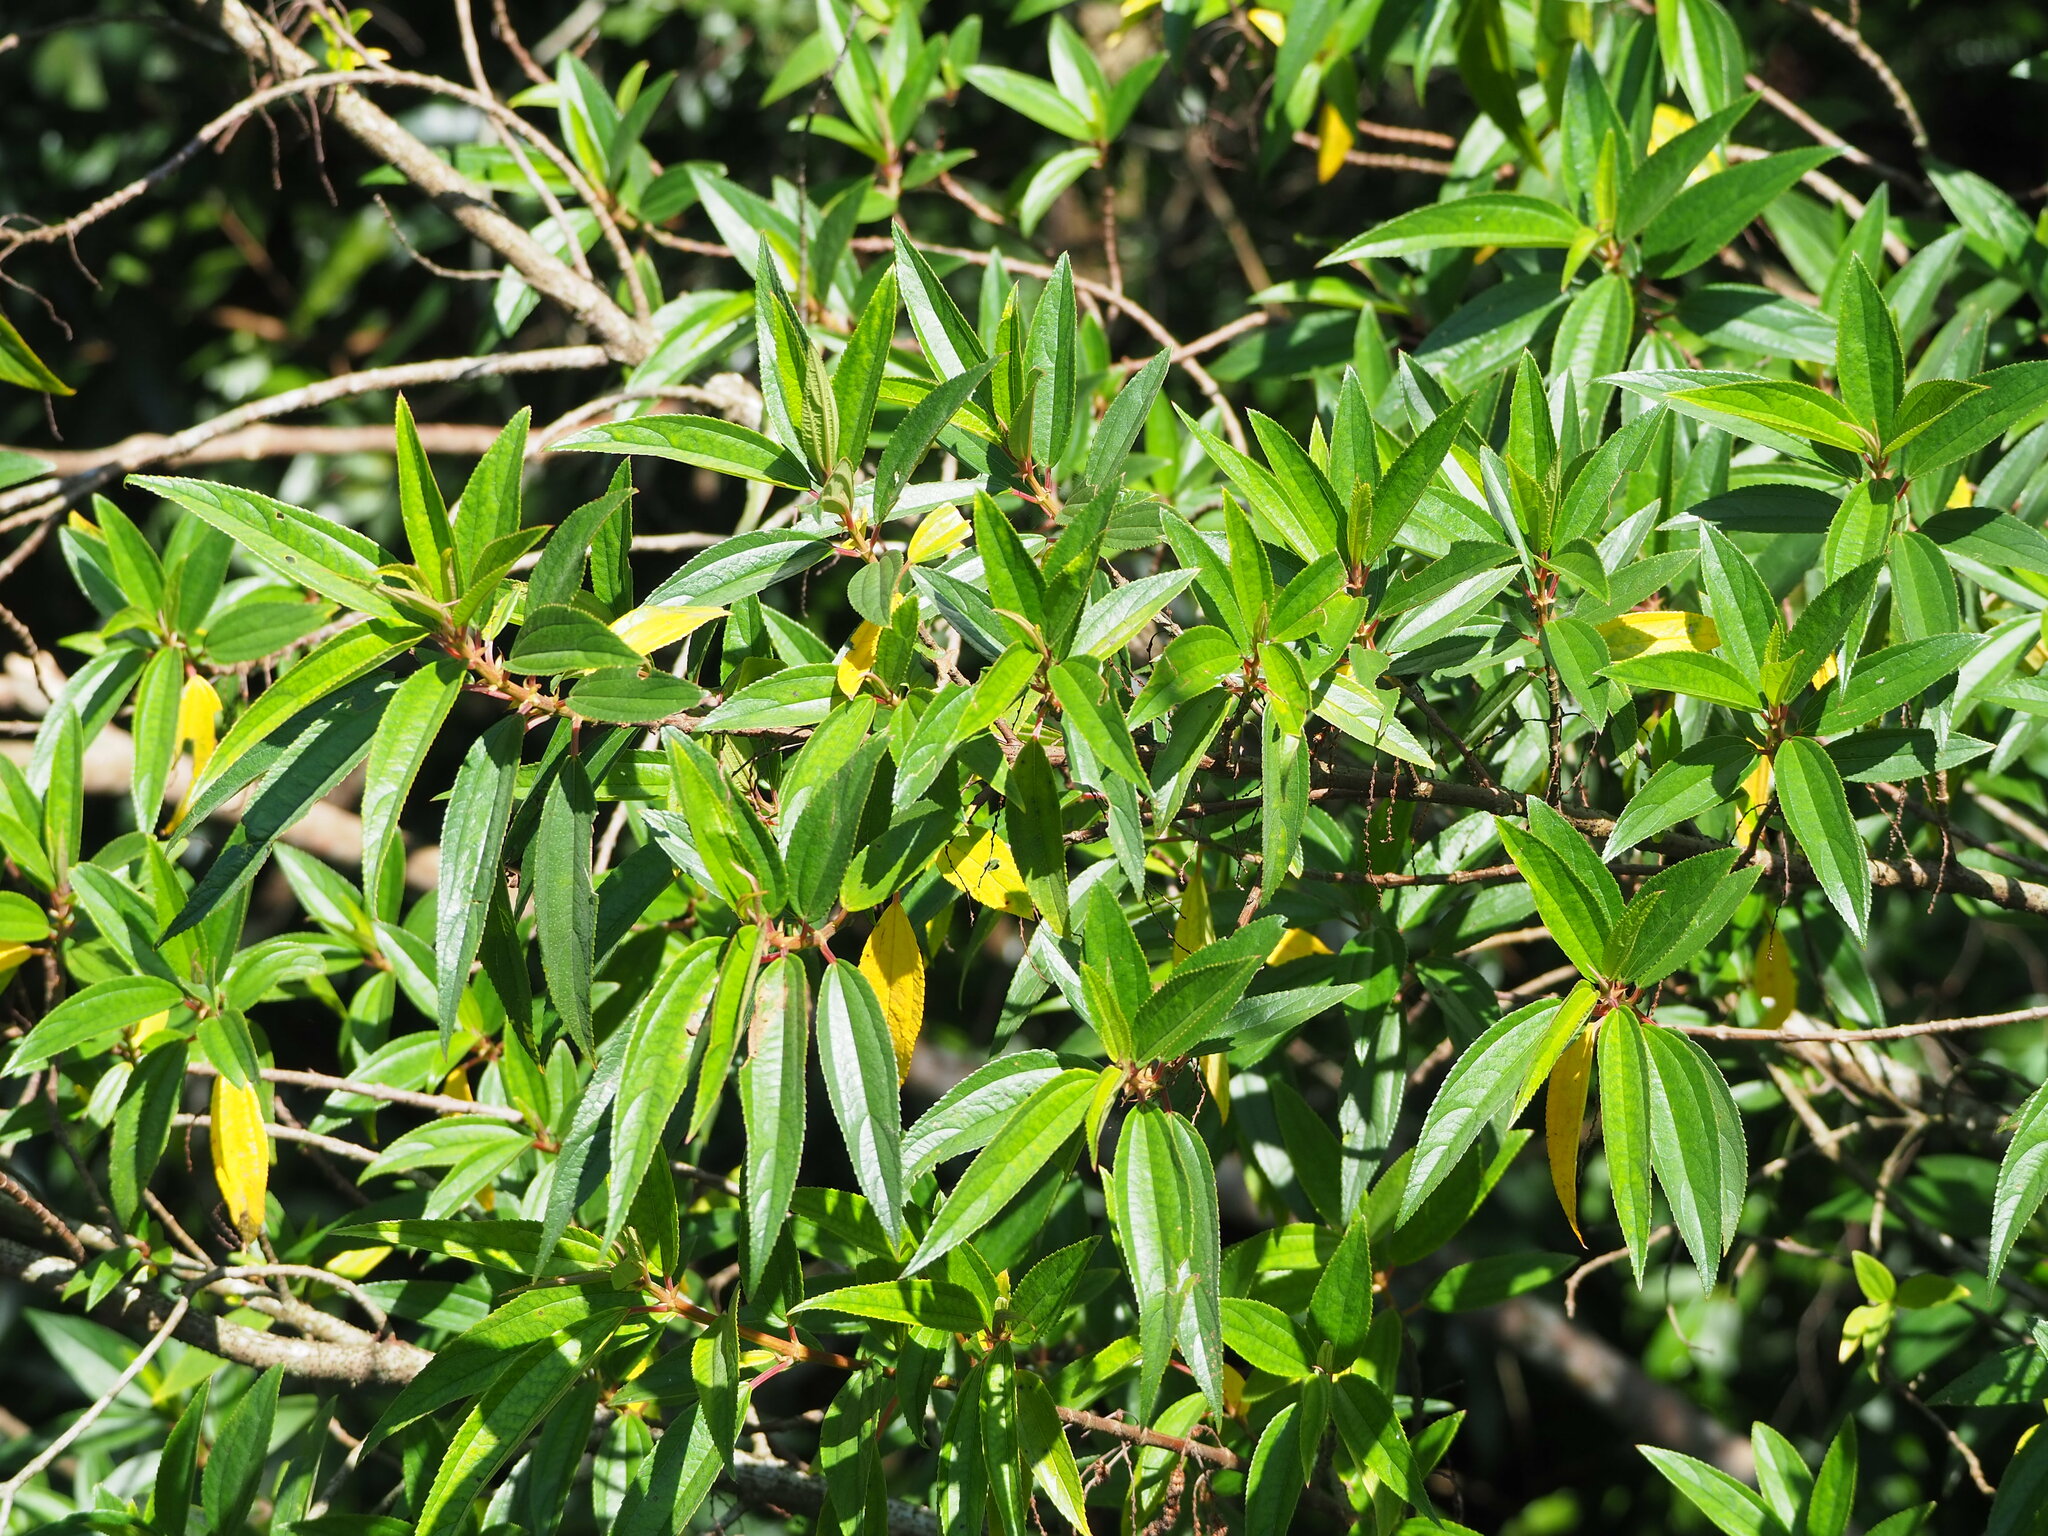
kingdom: Plantae
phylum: Tracheophyta
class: Magnoliopsida
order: Rosales
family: Urticaceae
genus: Boehmeria
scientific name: Boehmeria densiflora
